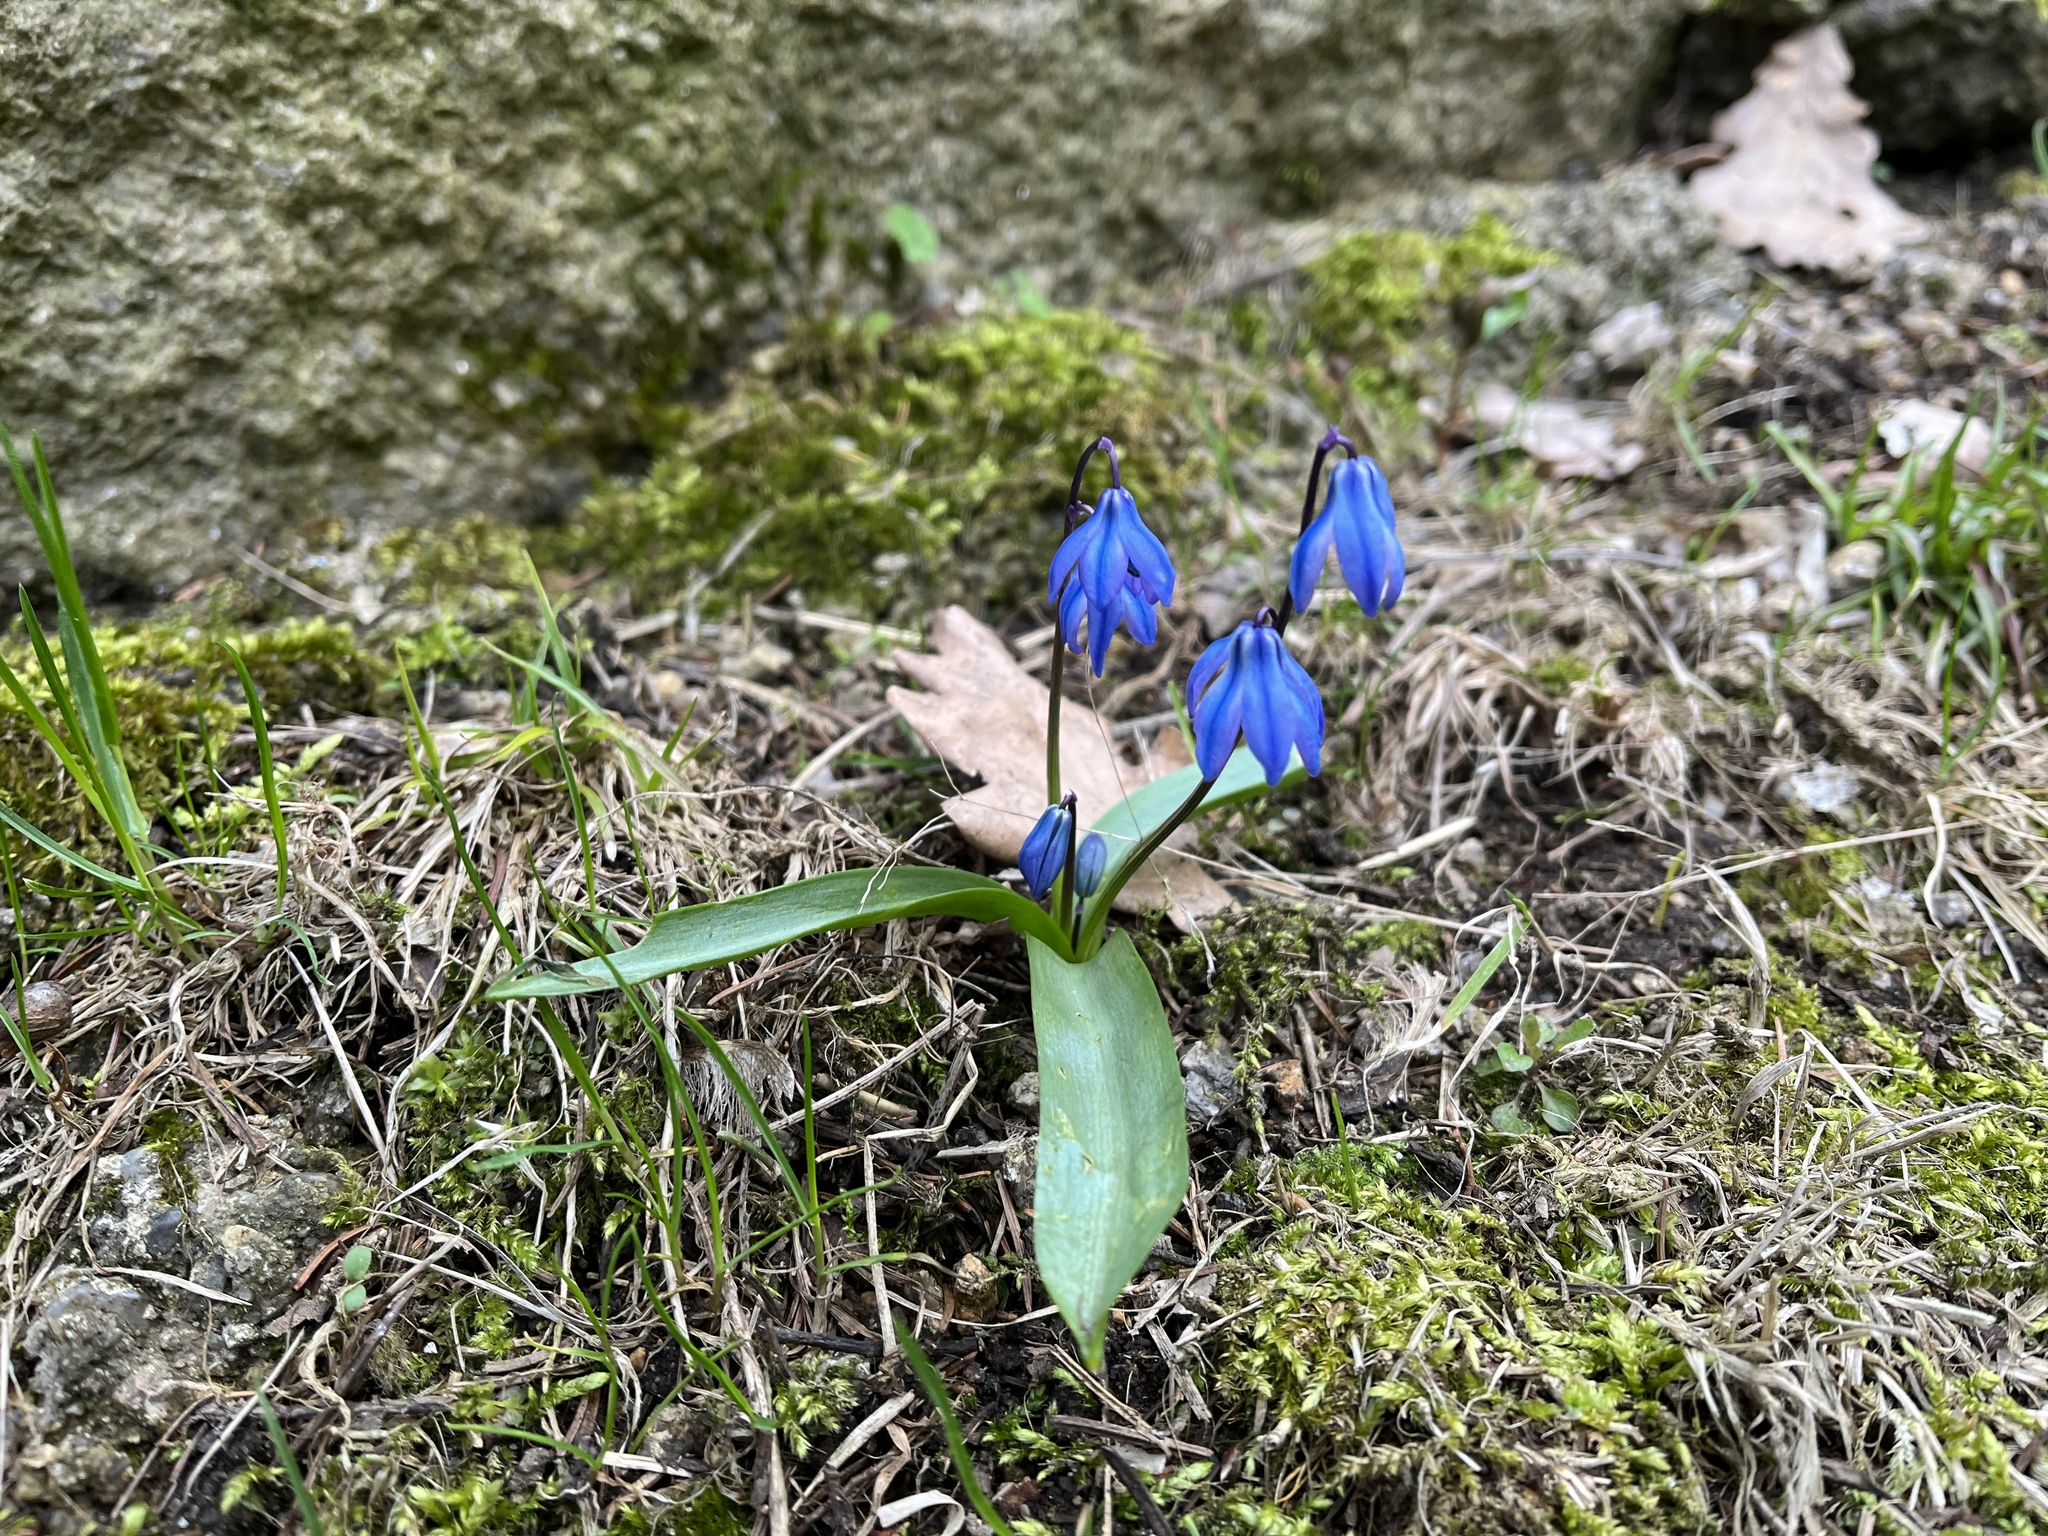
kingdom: Plantae
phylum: Tracheophyta
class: Liliopsida
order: Asparagales
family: Asparagaceae
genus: Scilla
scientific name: Scilla siberica
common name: Siberian squill
